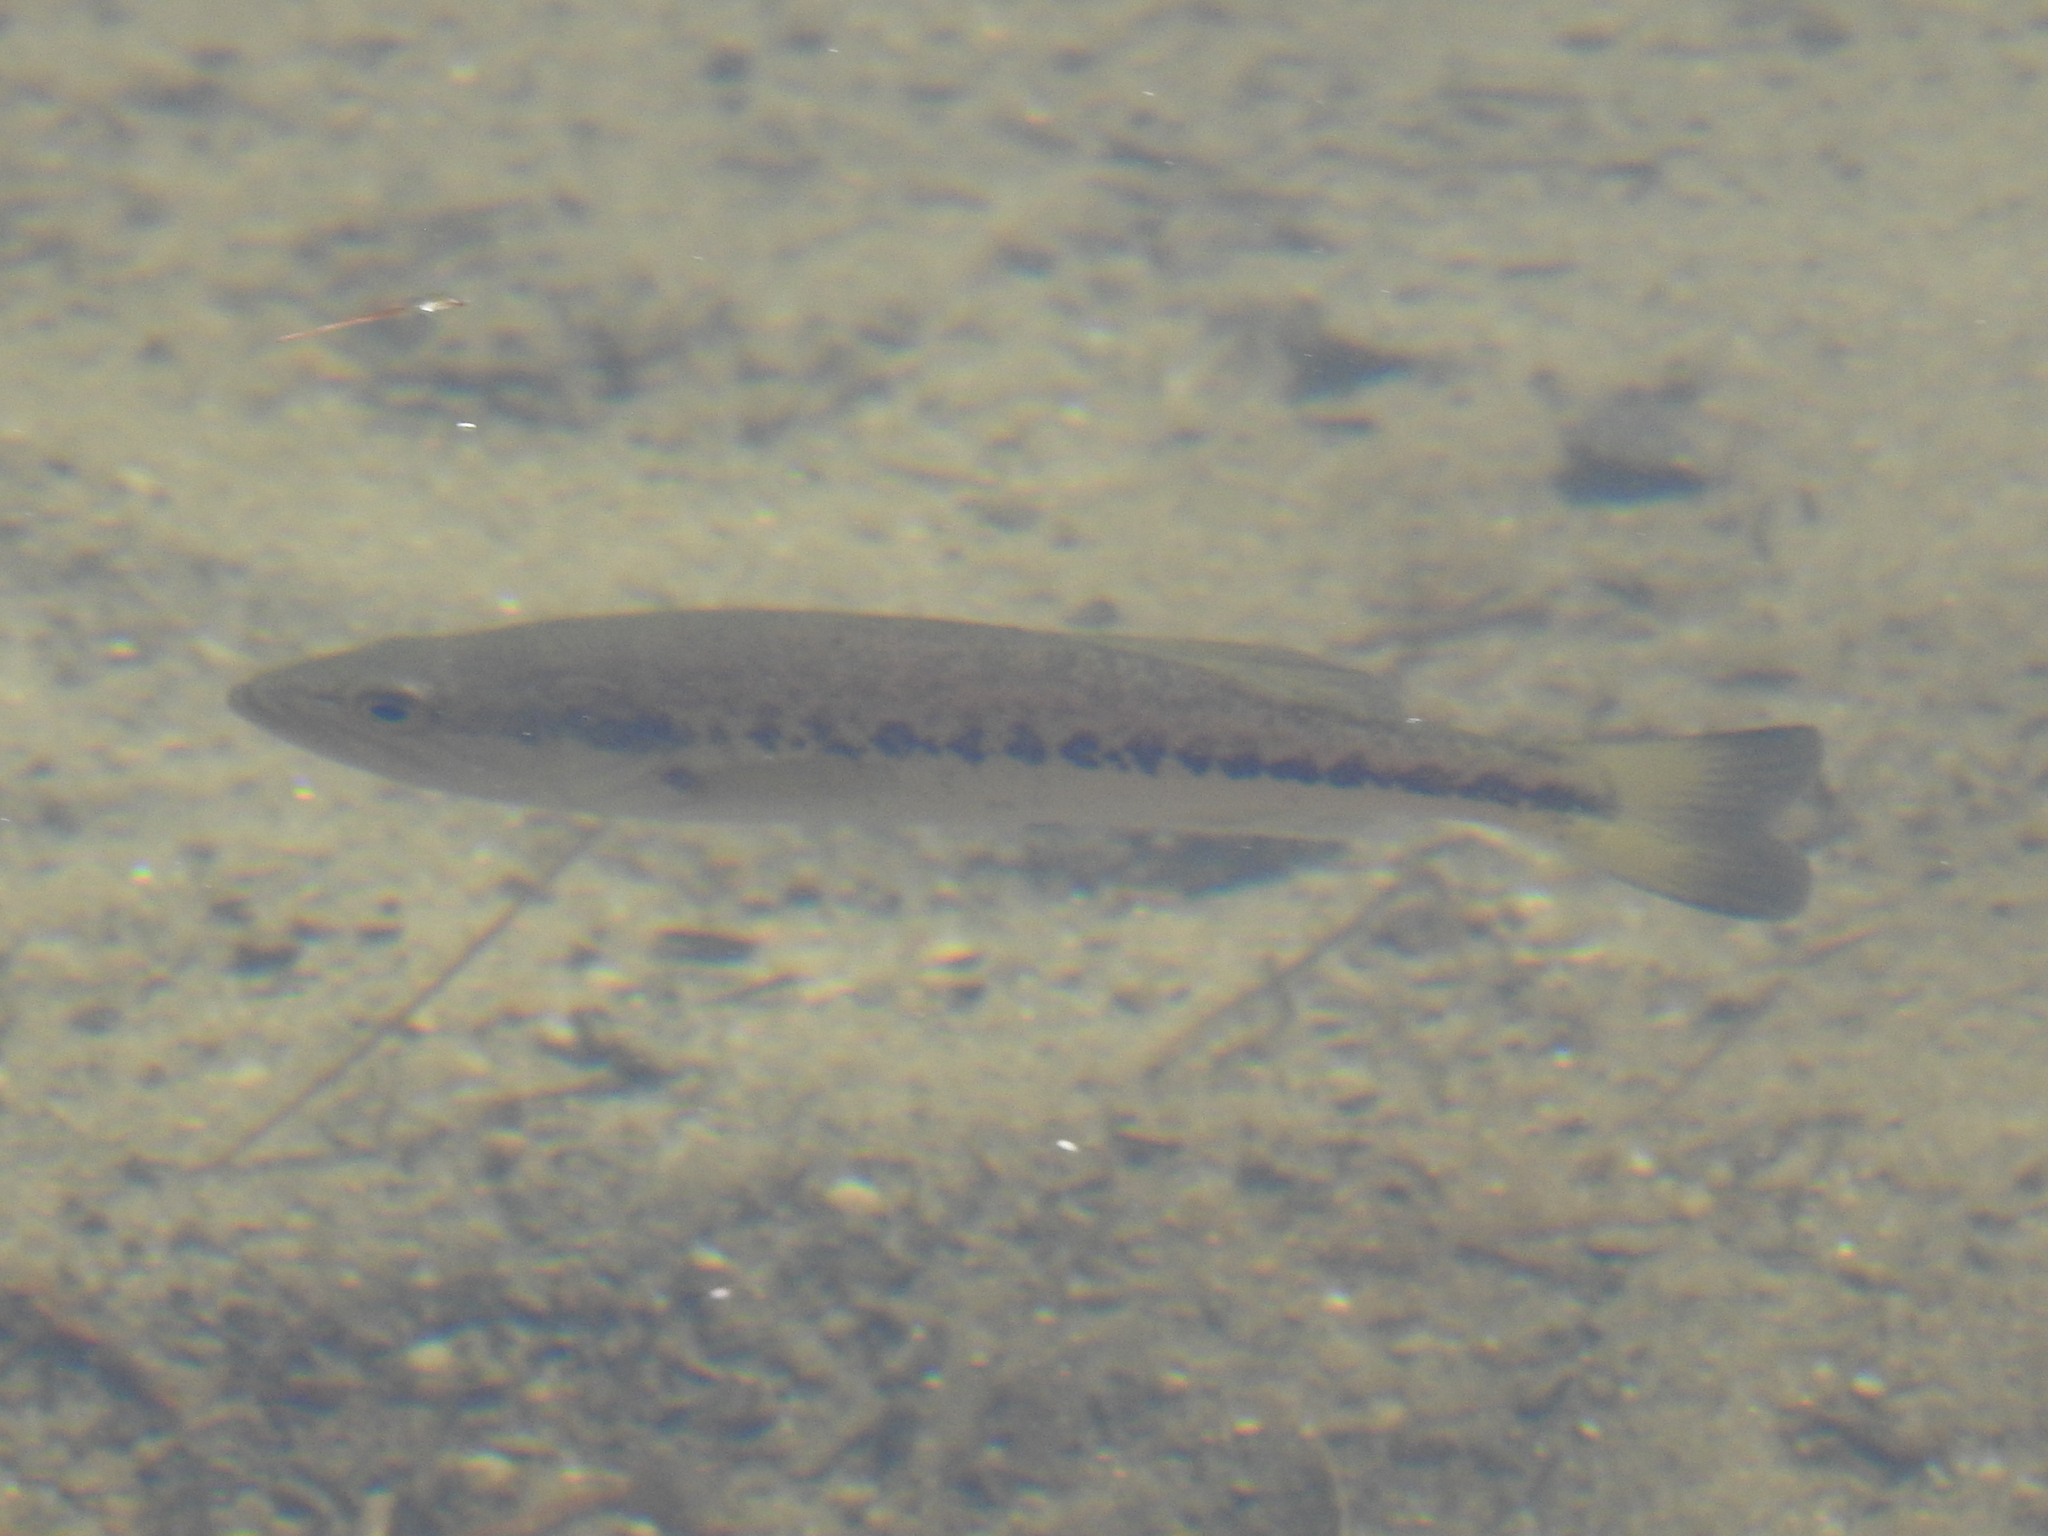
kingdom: Animalia
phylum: Chordata
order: Perciformes
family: Centrarchidae
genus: Micropterus
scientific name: Micropterus
